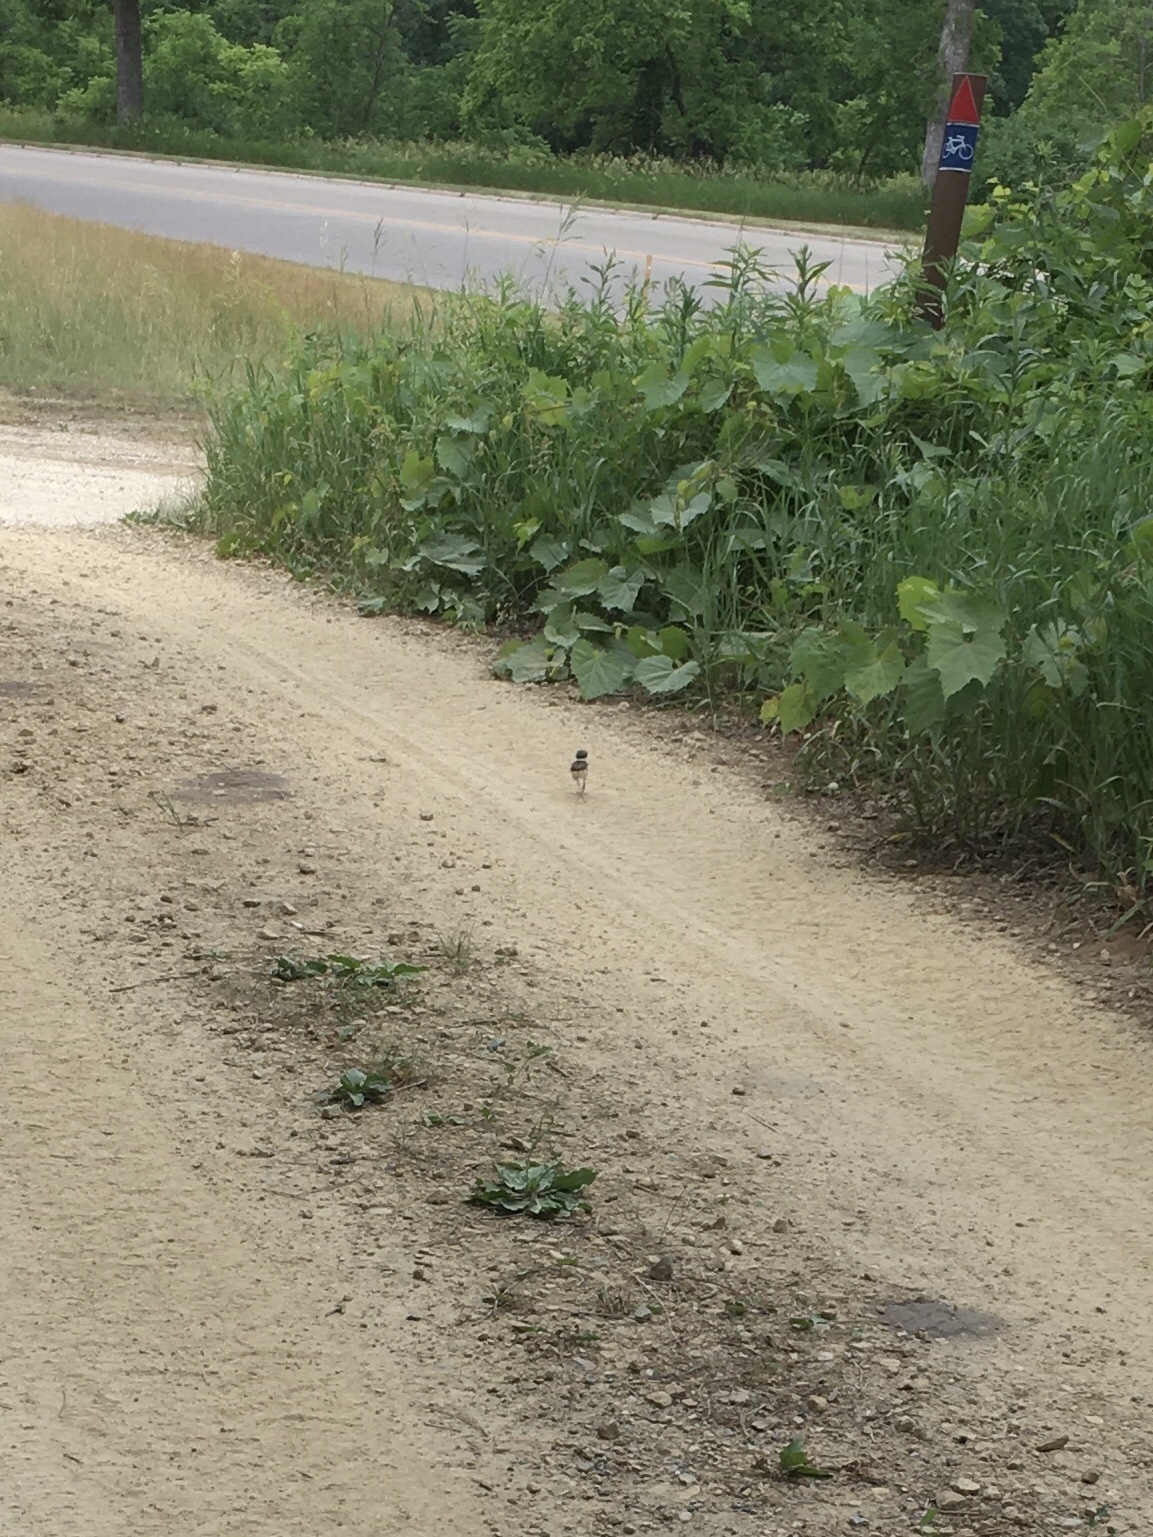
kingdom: Animalia
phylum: Chordata
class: Aves
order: Charadriiformes
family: Charadriidae
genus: Charadrius
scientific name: Charadrius vociferus
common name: Killdeer
